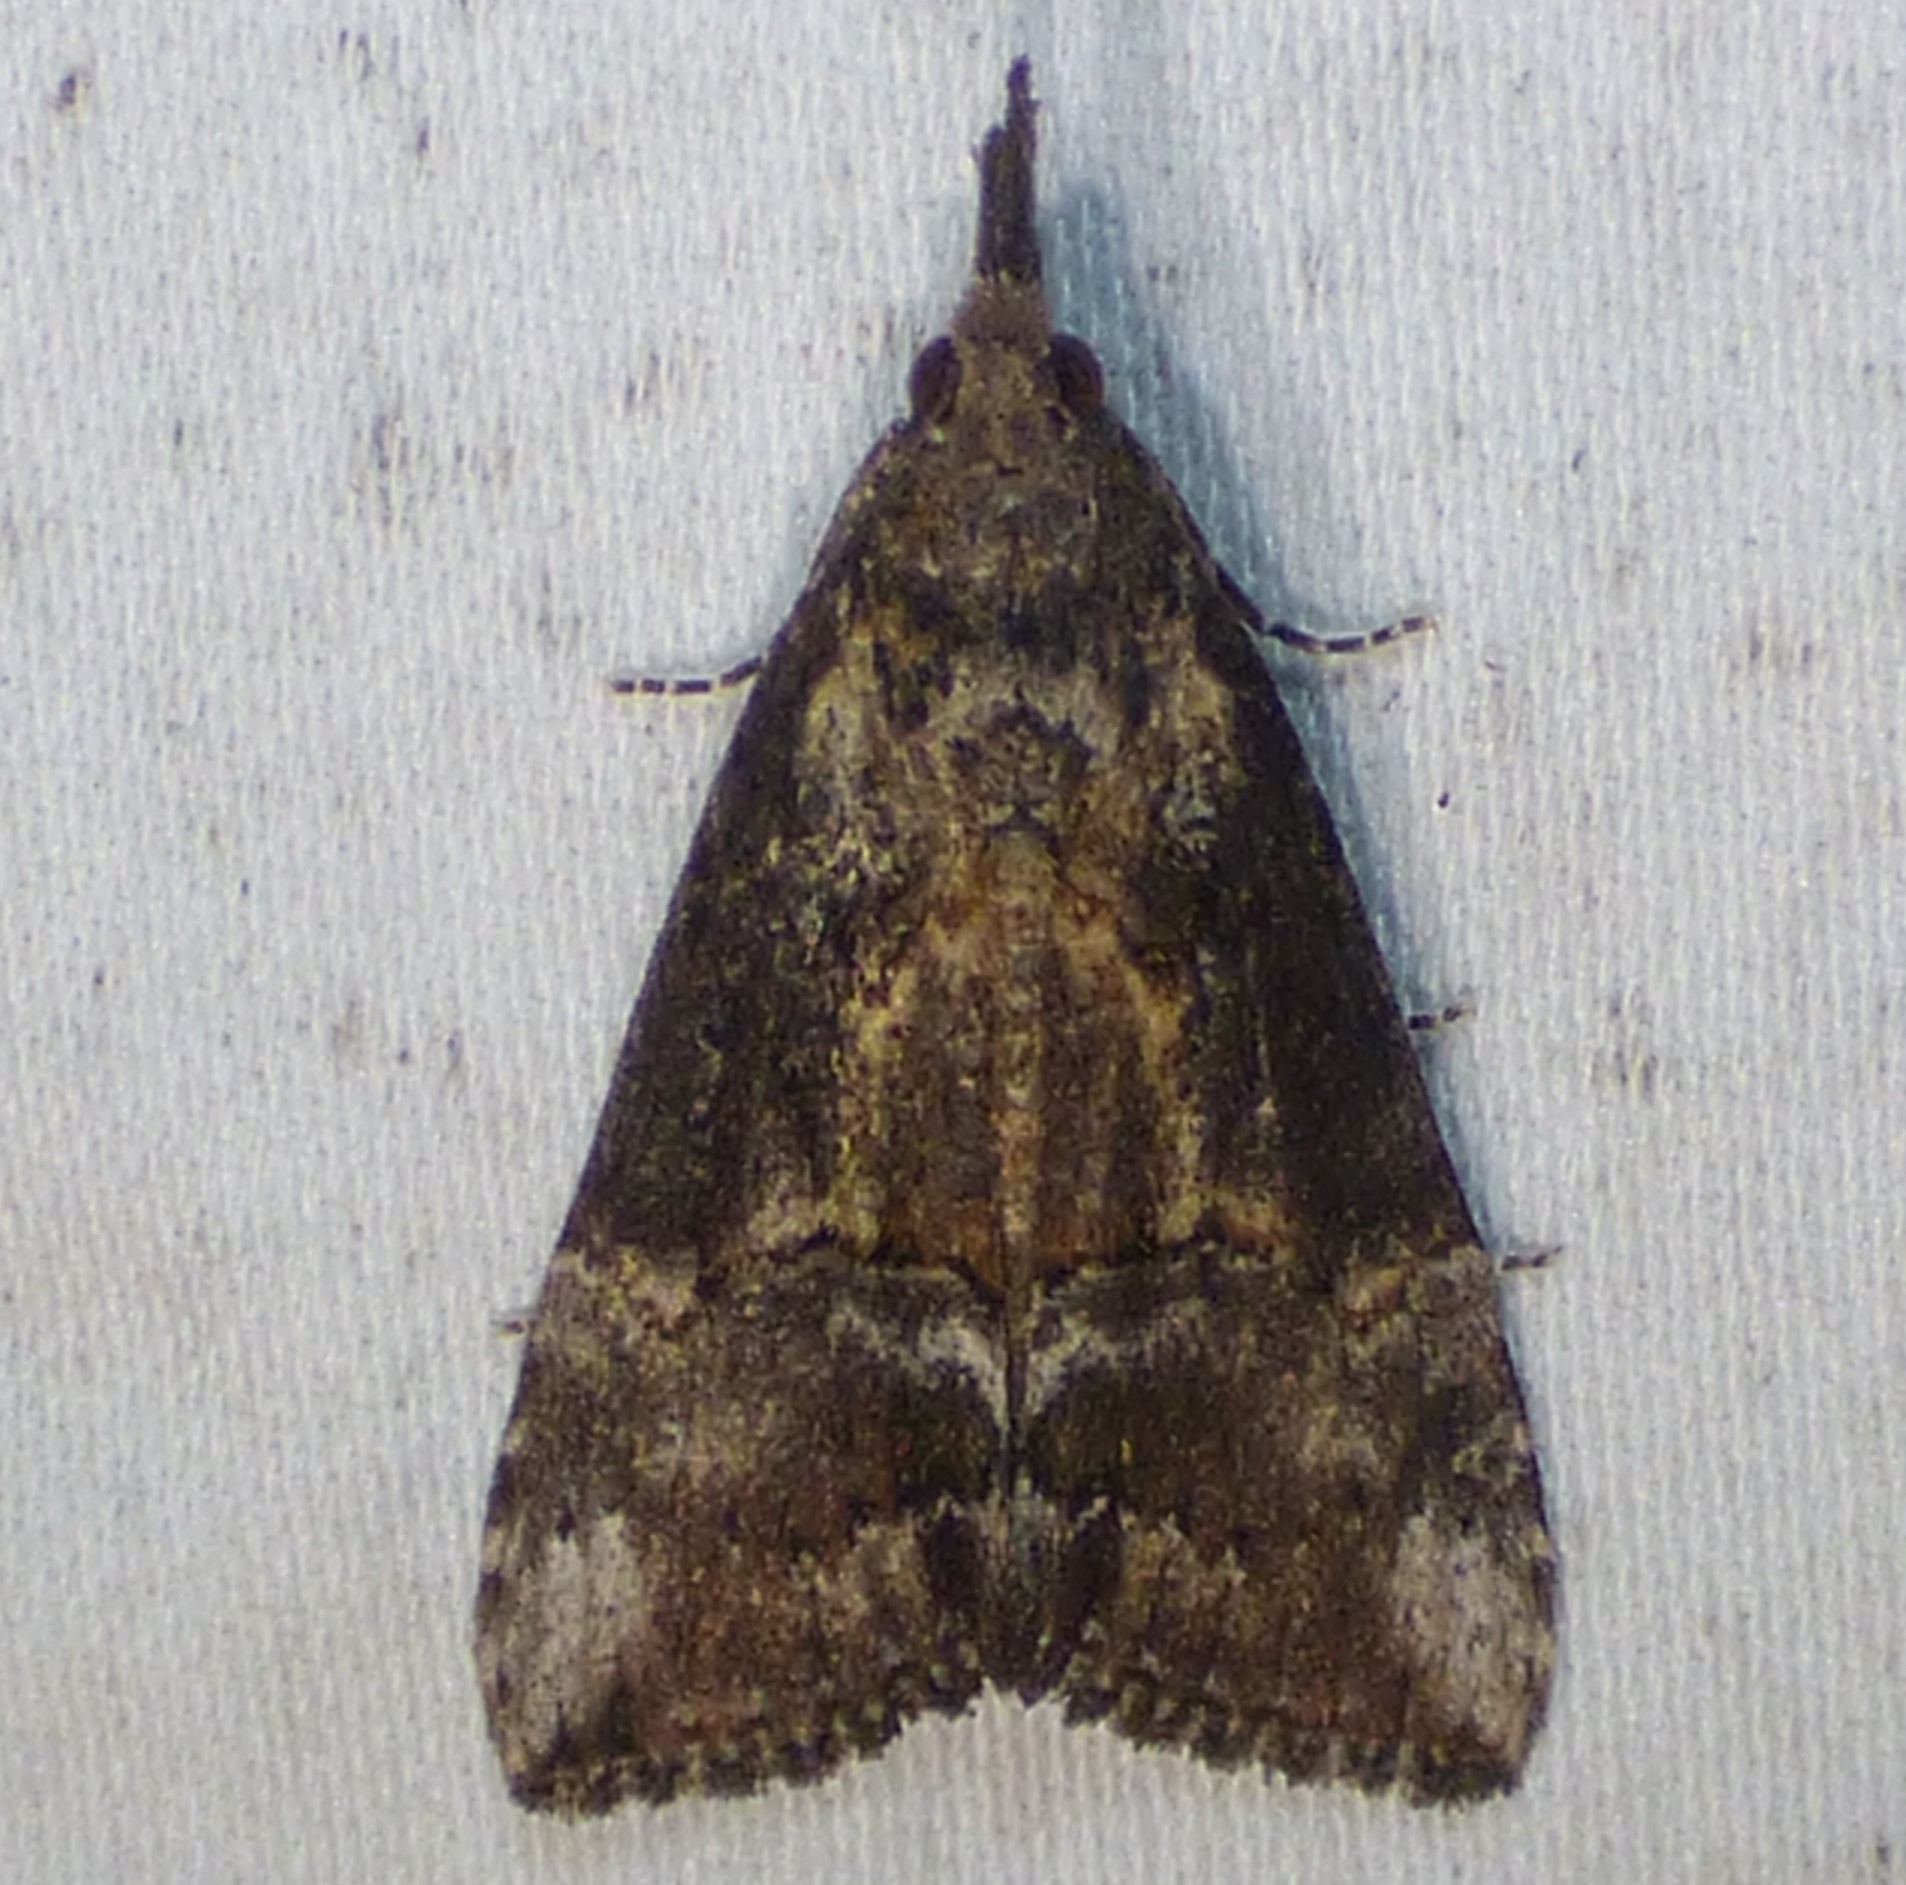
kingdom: Animalia
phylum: Arthropoda
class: Insecta
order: Lepidoptera
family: Erebidae
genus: Hypena
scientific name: Hypena scabra
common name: Green cloverworm
